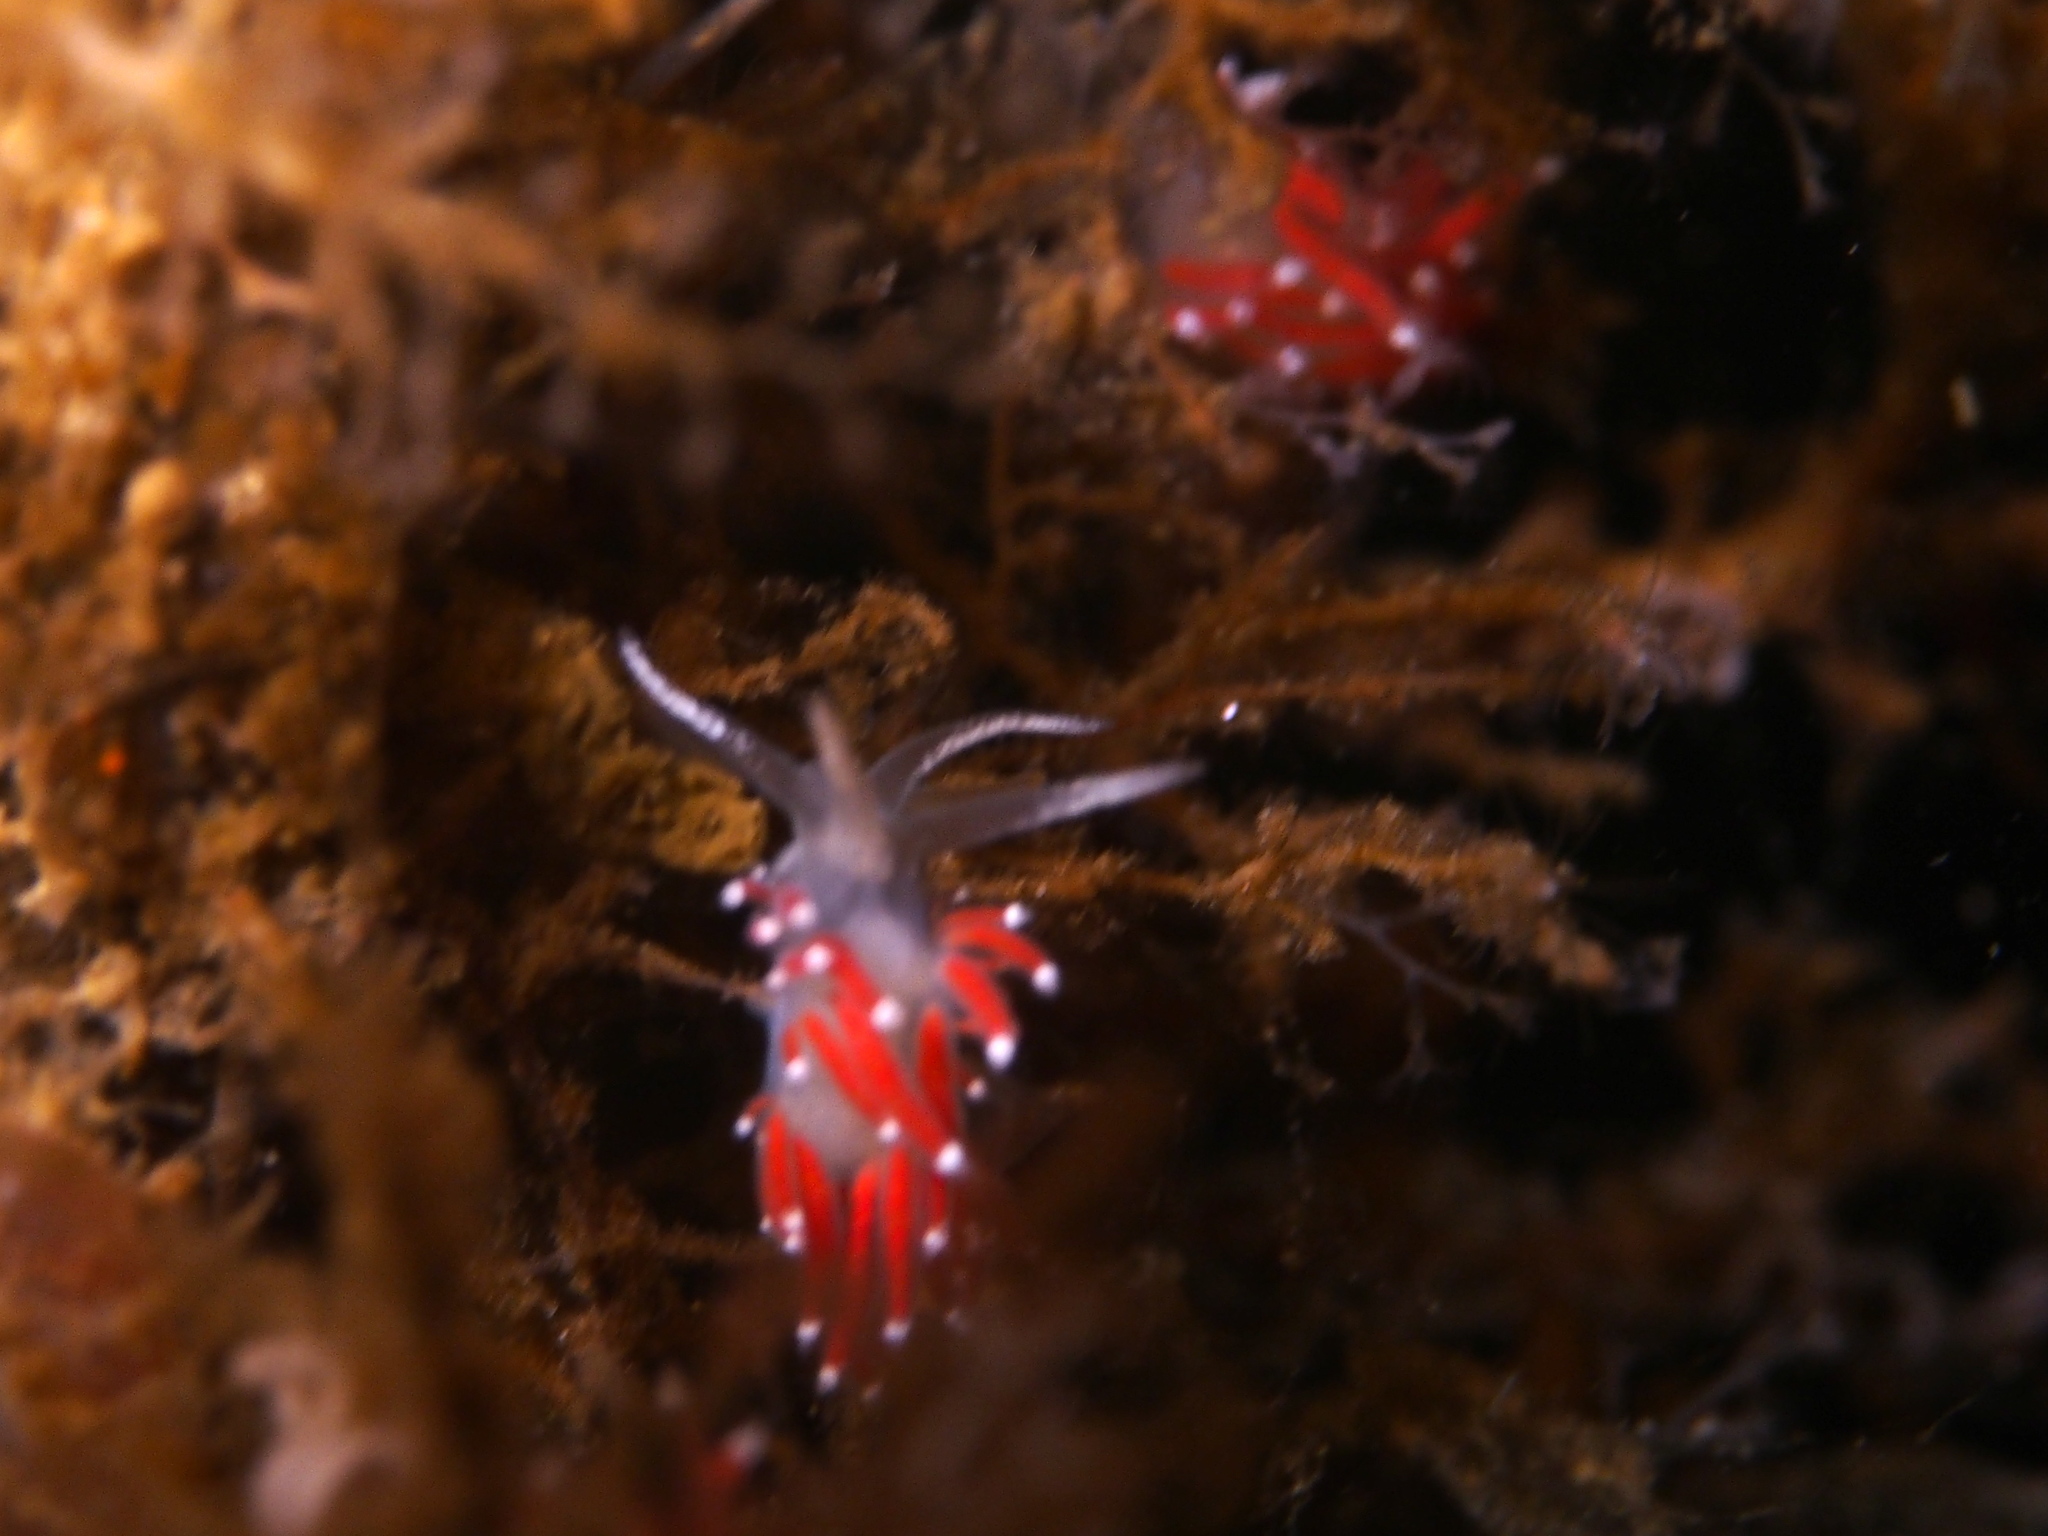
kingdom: Animalia
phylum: Mollusca
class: Gastropoda
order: Nudibranchia
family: Coryphellidae
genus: Coryphella
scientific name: Coryphella gracilis
